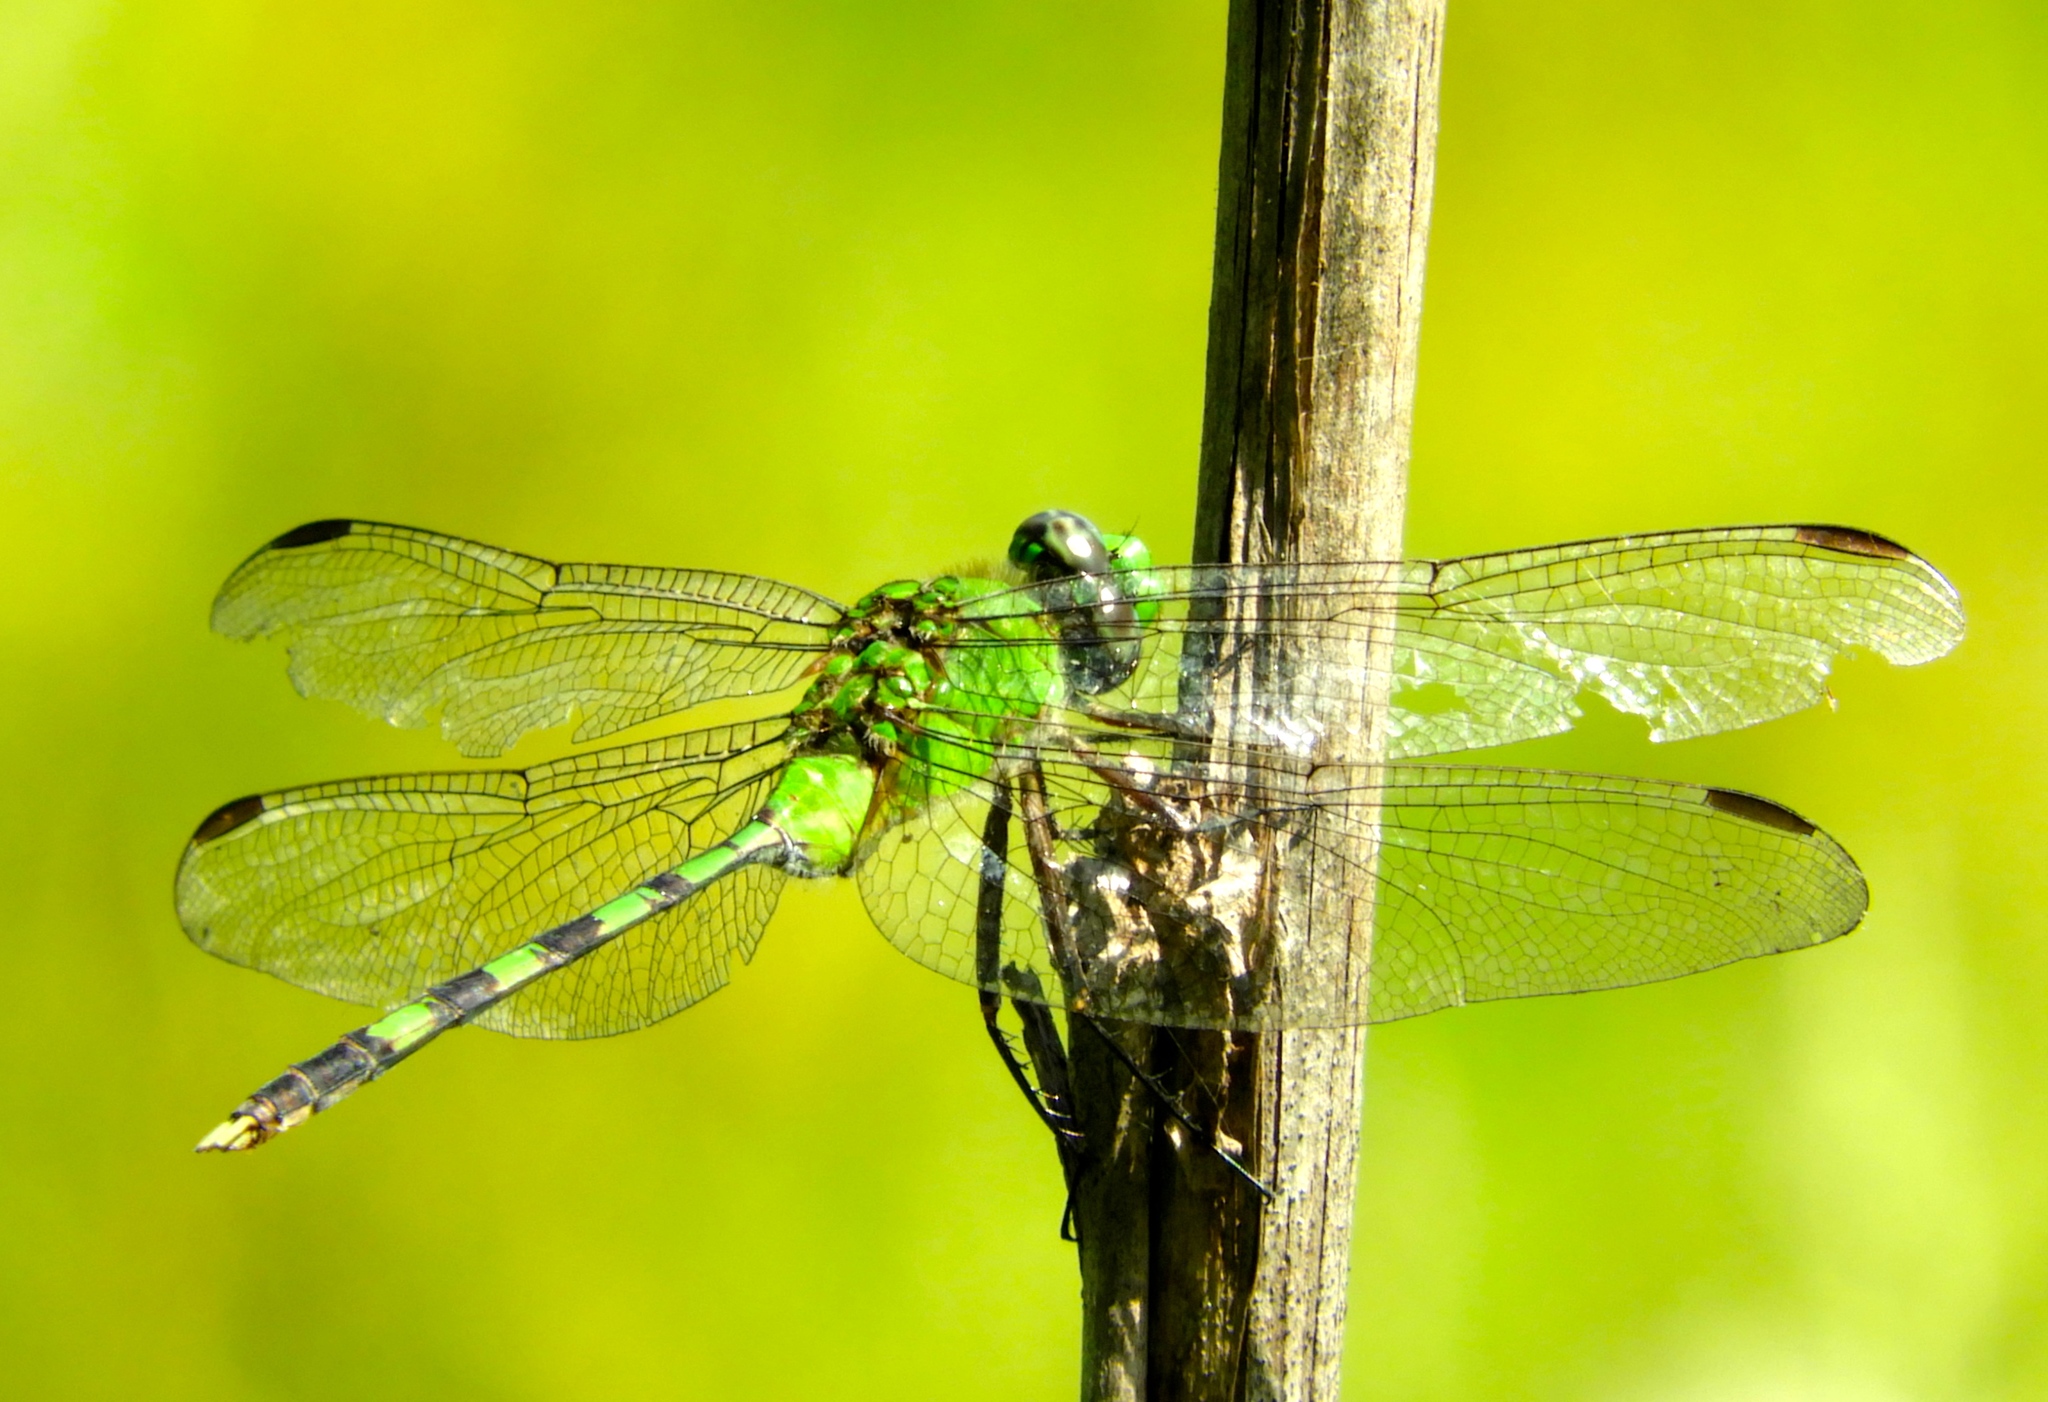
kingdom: Animalia
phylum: Arthropoda
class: Insecta
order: Odonata
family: Libellulidae
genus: Erythemis
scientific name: Erythemis vesiculosa
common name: Great pondhawk
